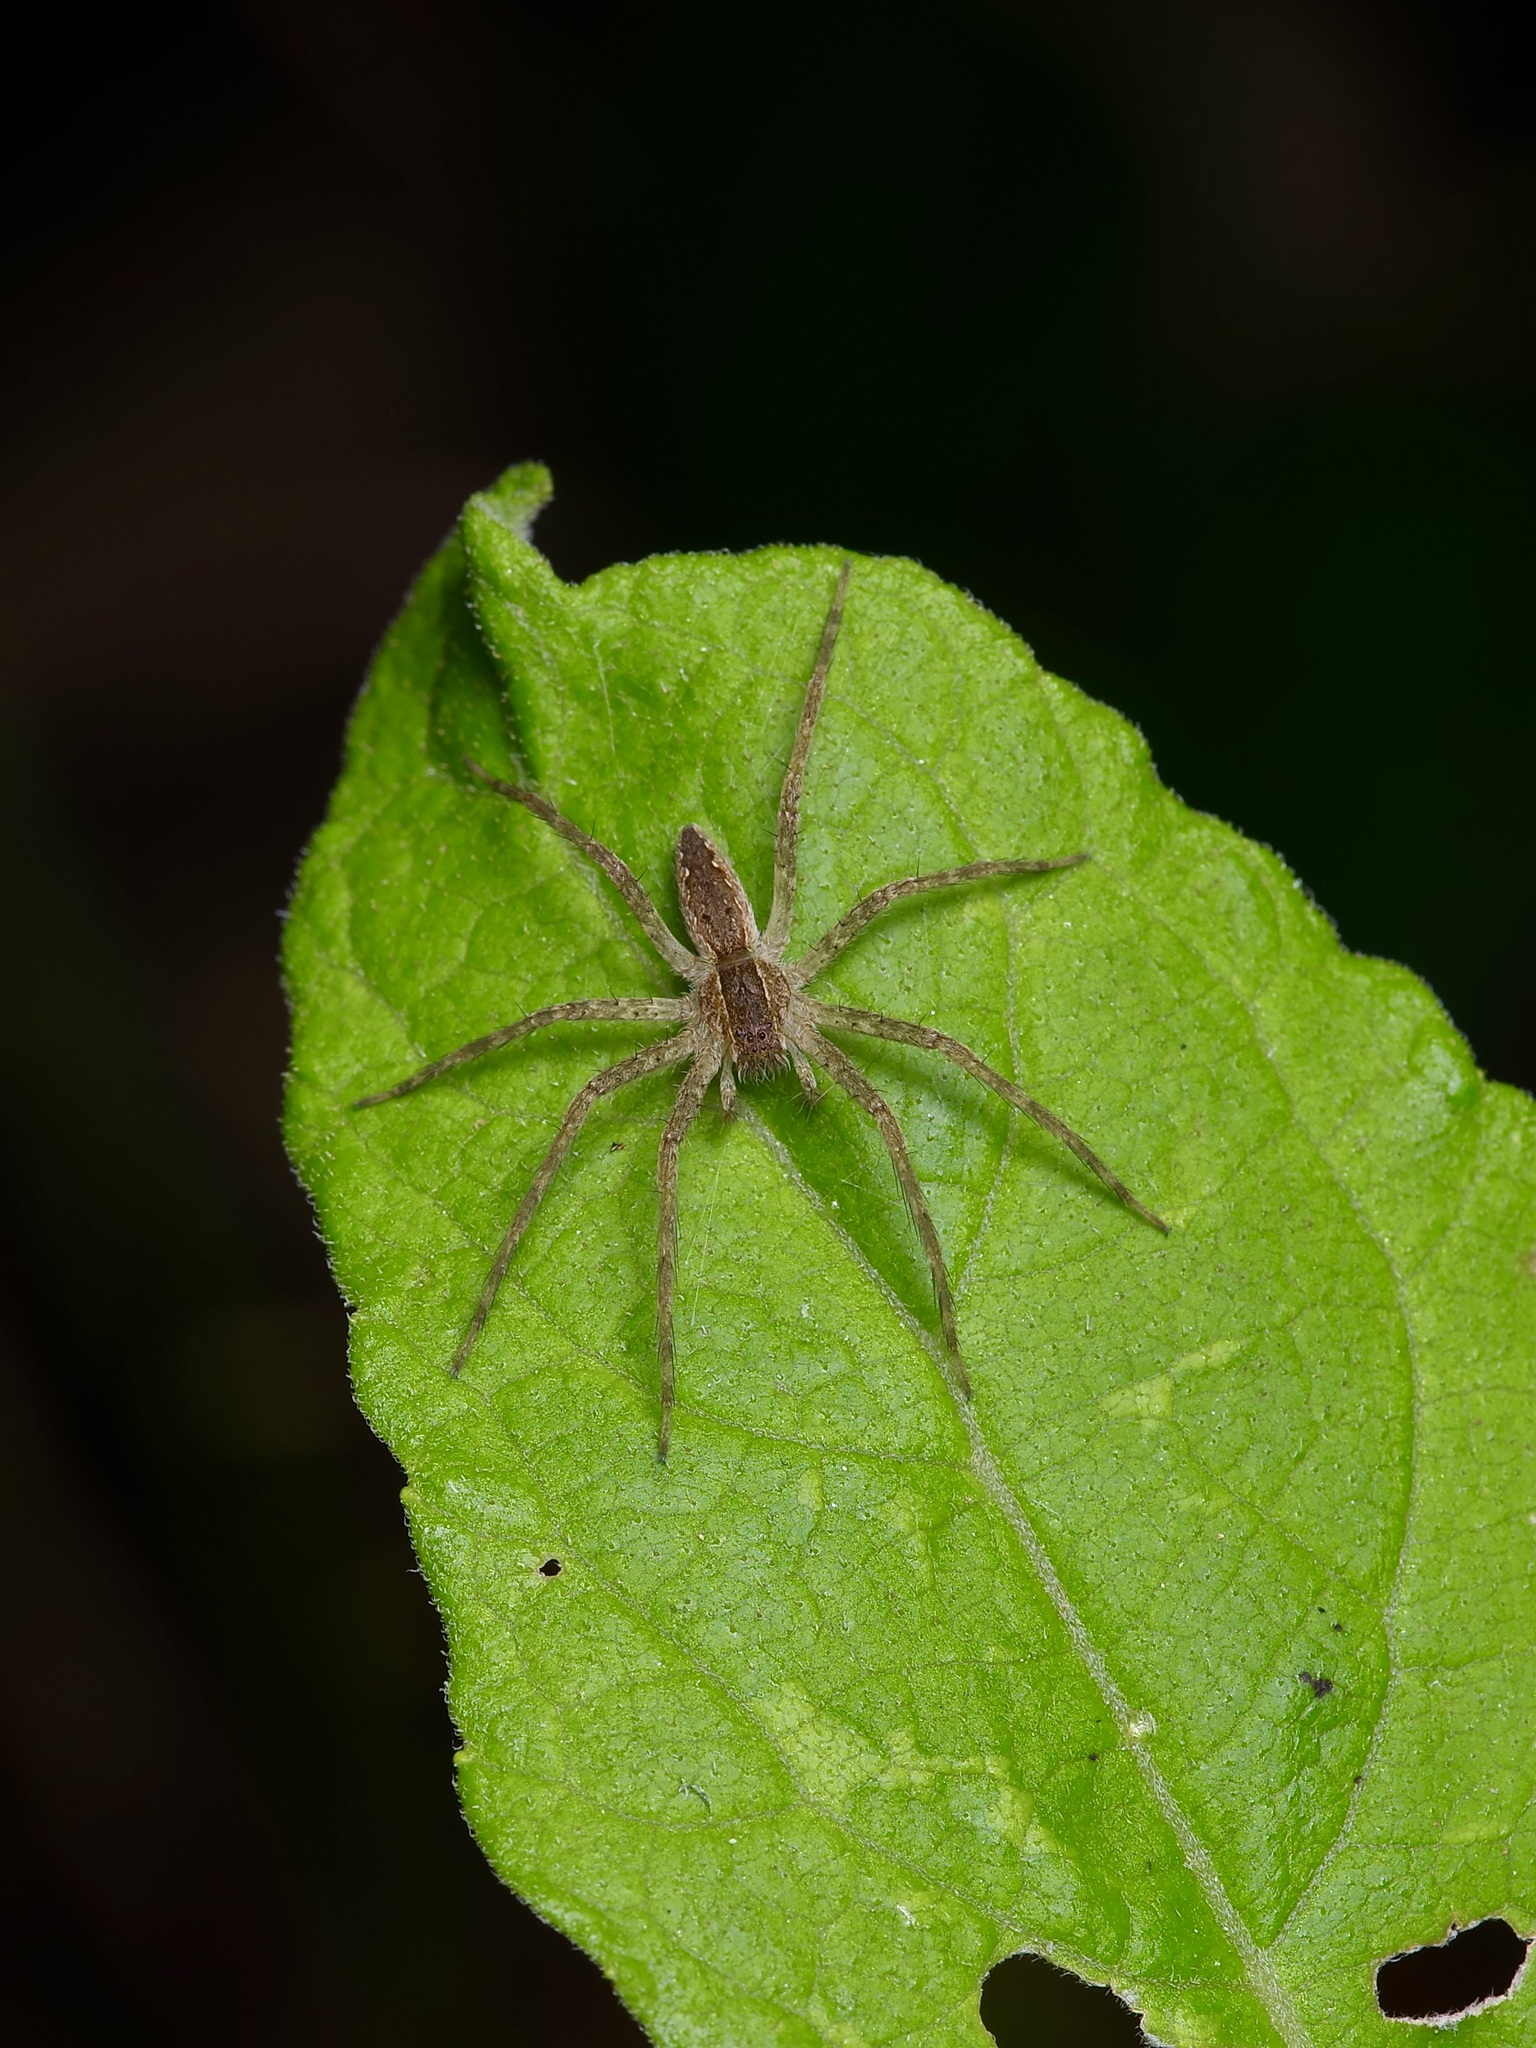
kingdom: Animalia
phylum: Arthropoda
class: Arachnida
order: Araneae
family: Pisauridae
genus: Pisaurina
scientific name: Pisaurina mira
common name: American nursery web spider
